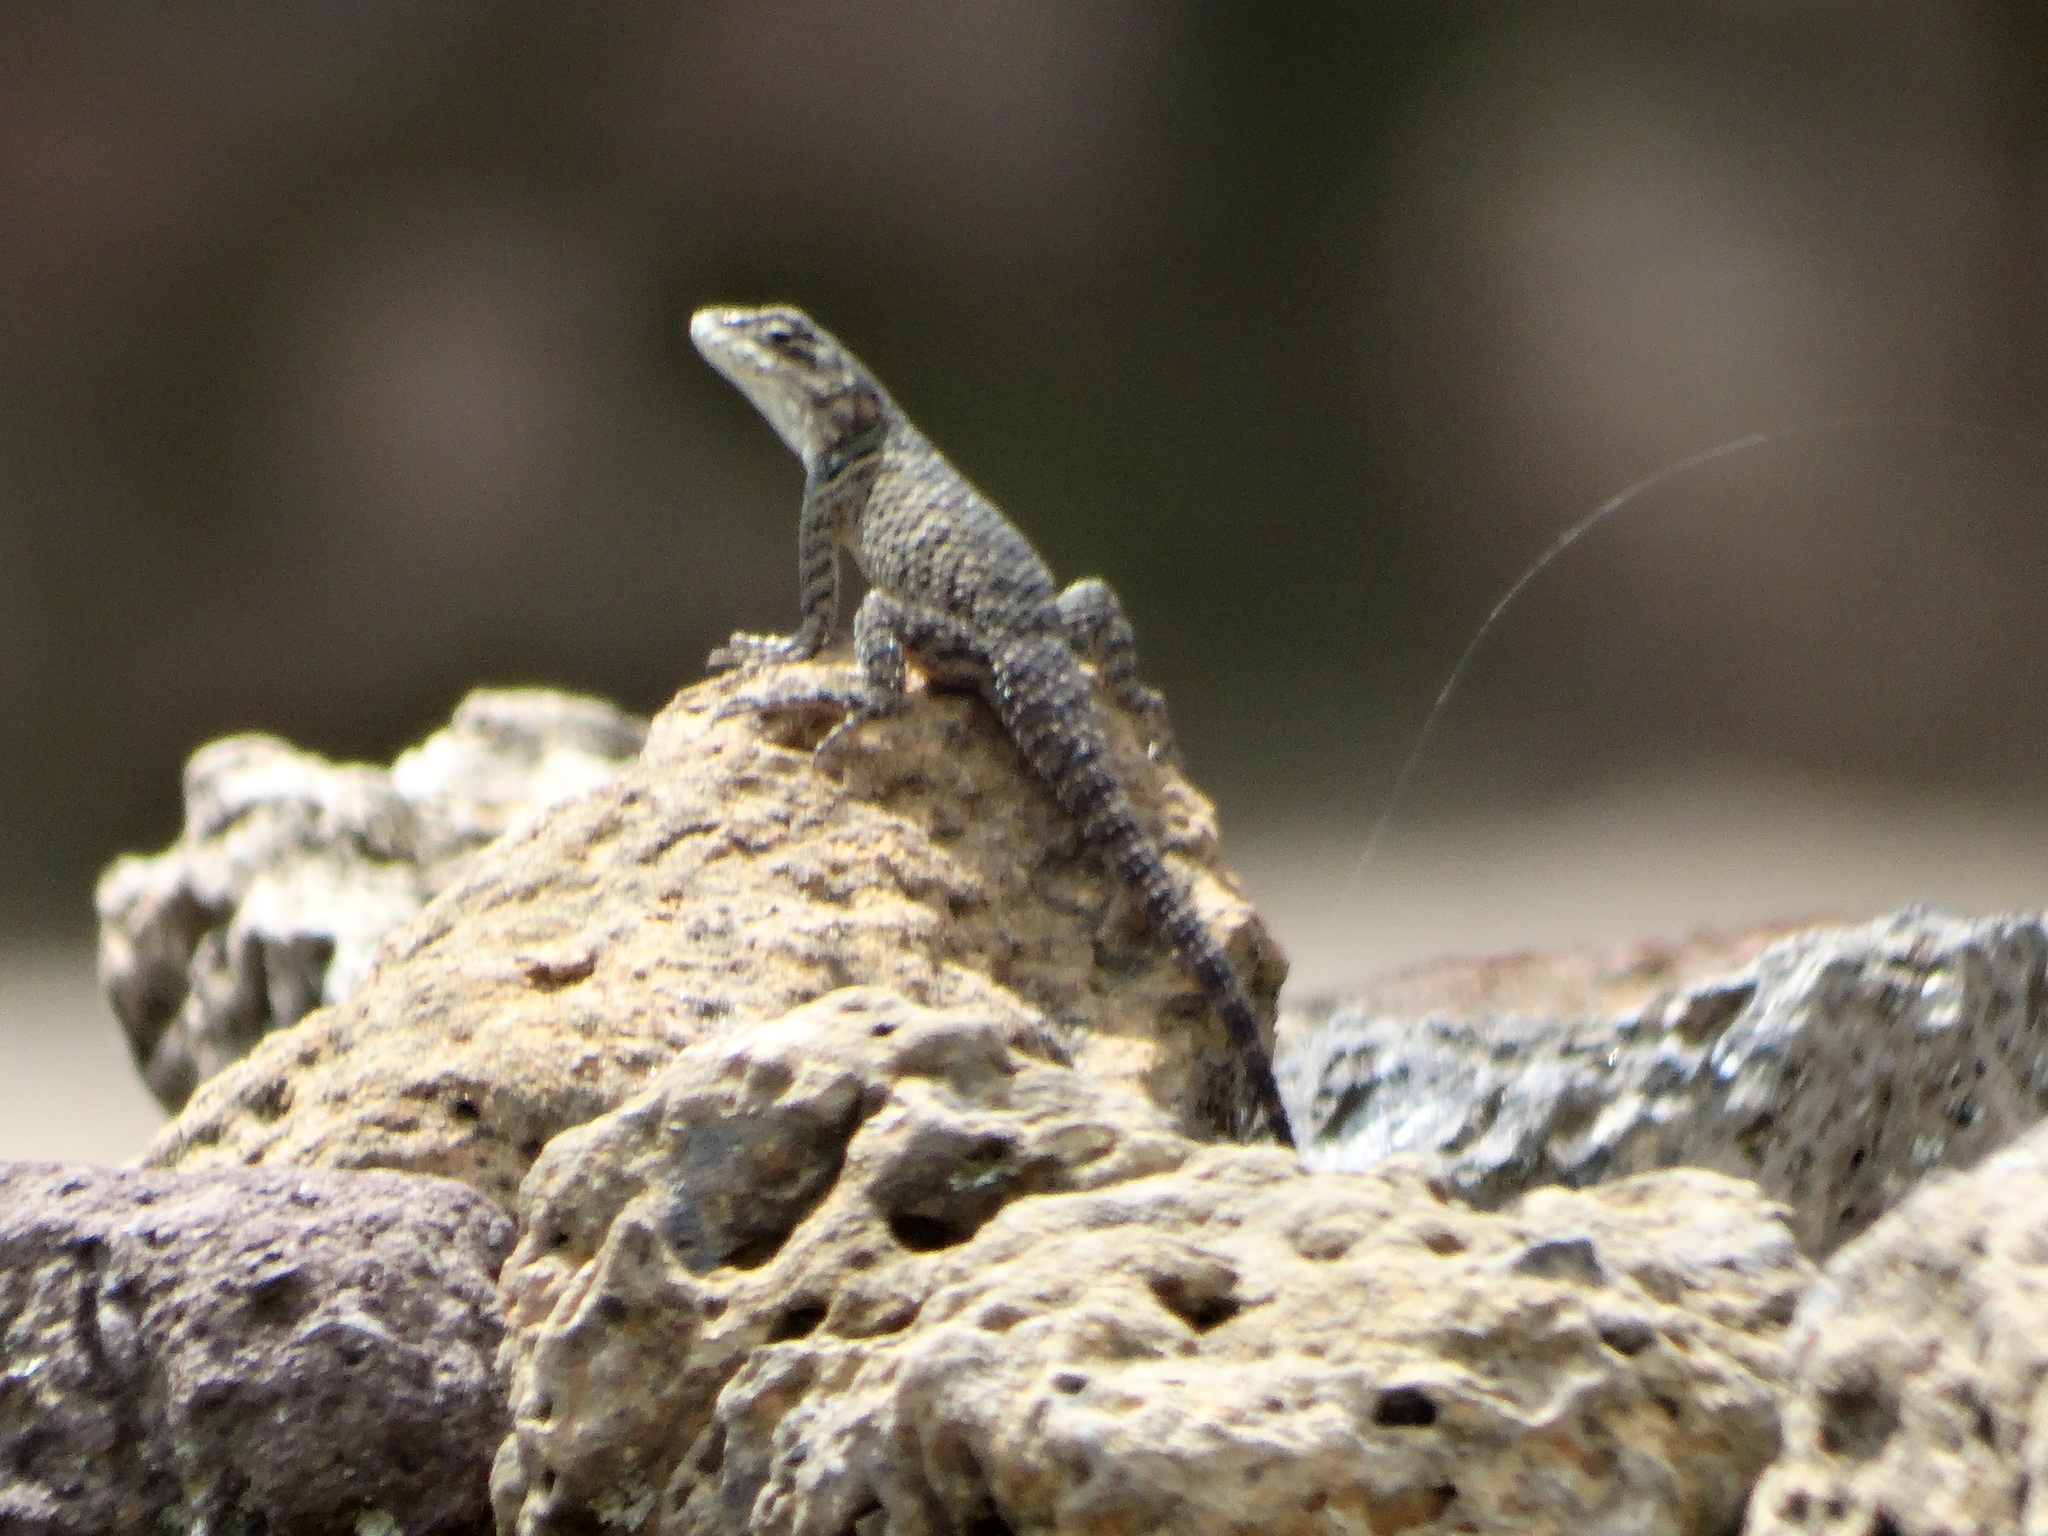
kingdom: Animalia
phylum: Chordata
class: Squamata
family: Phrynosomatidae
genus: Sceloporus
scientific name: Sceloporus torquatus
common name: Central plateau torquate lizard [melanogaster]
